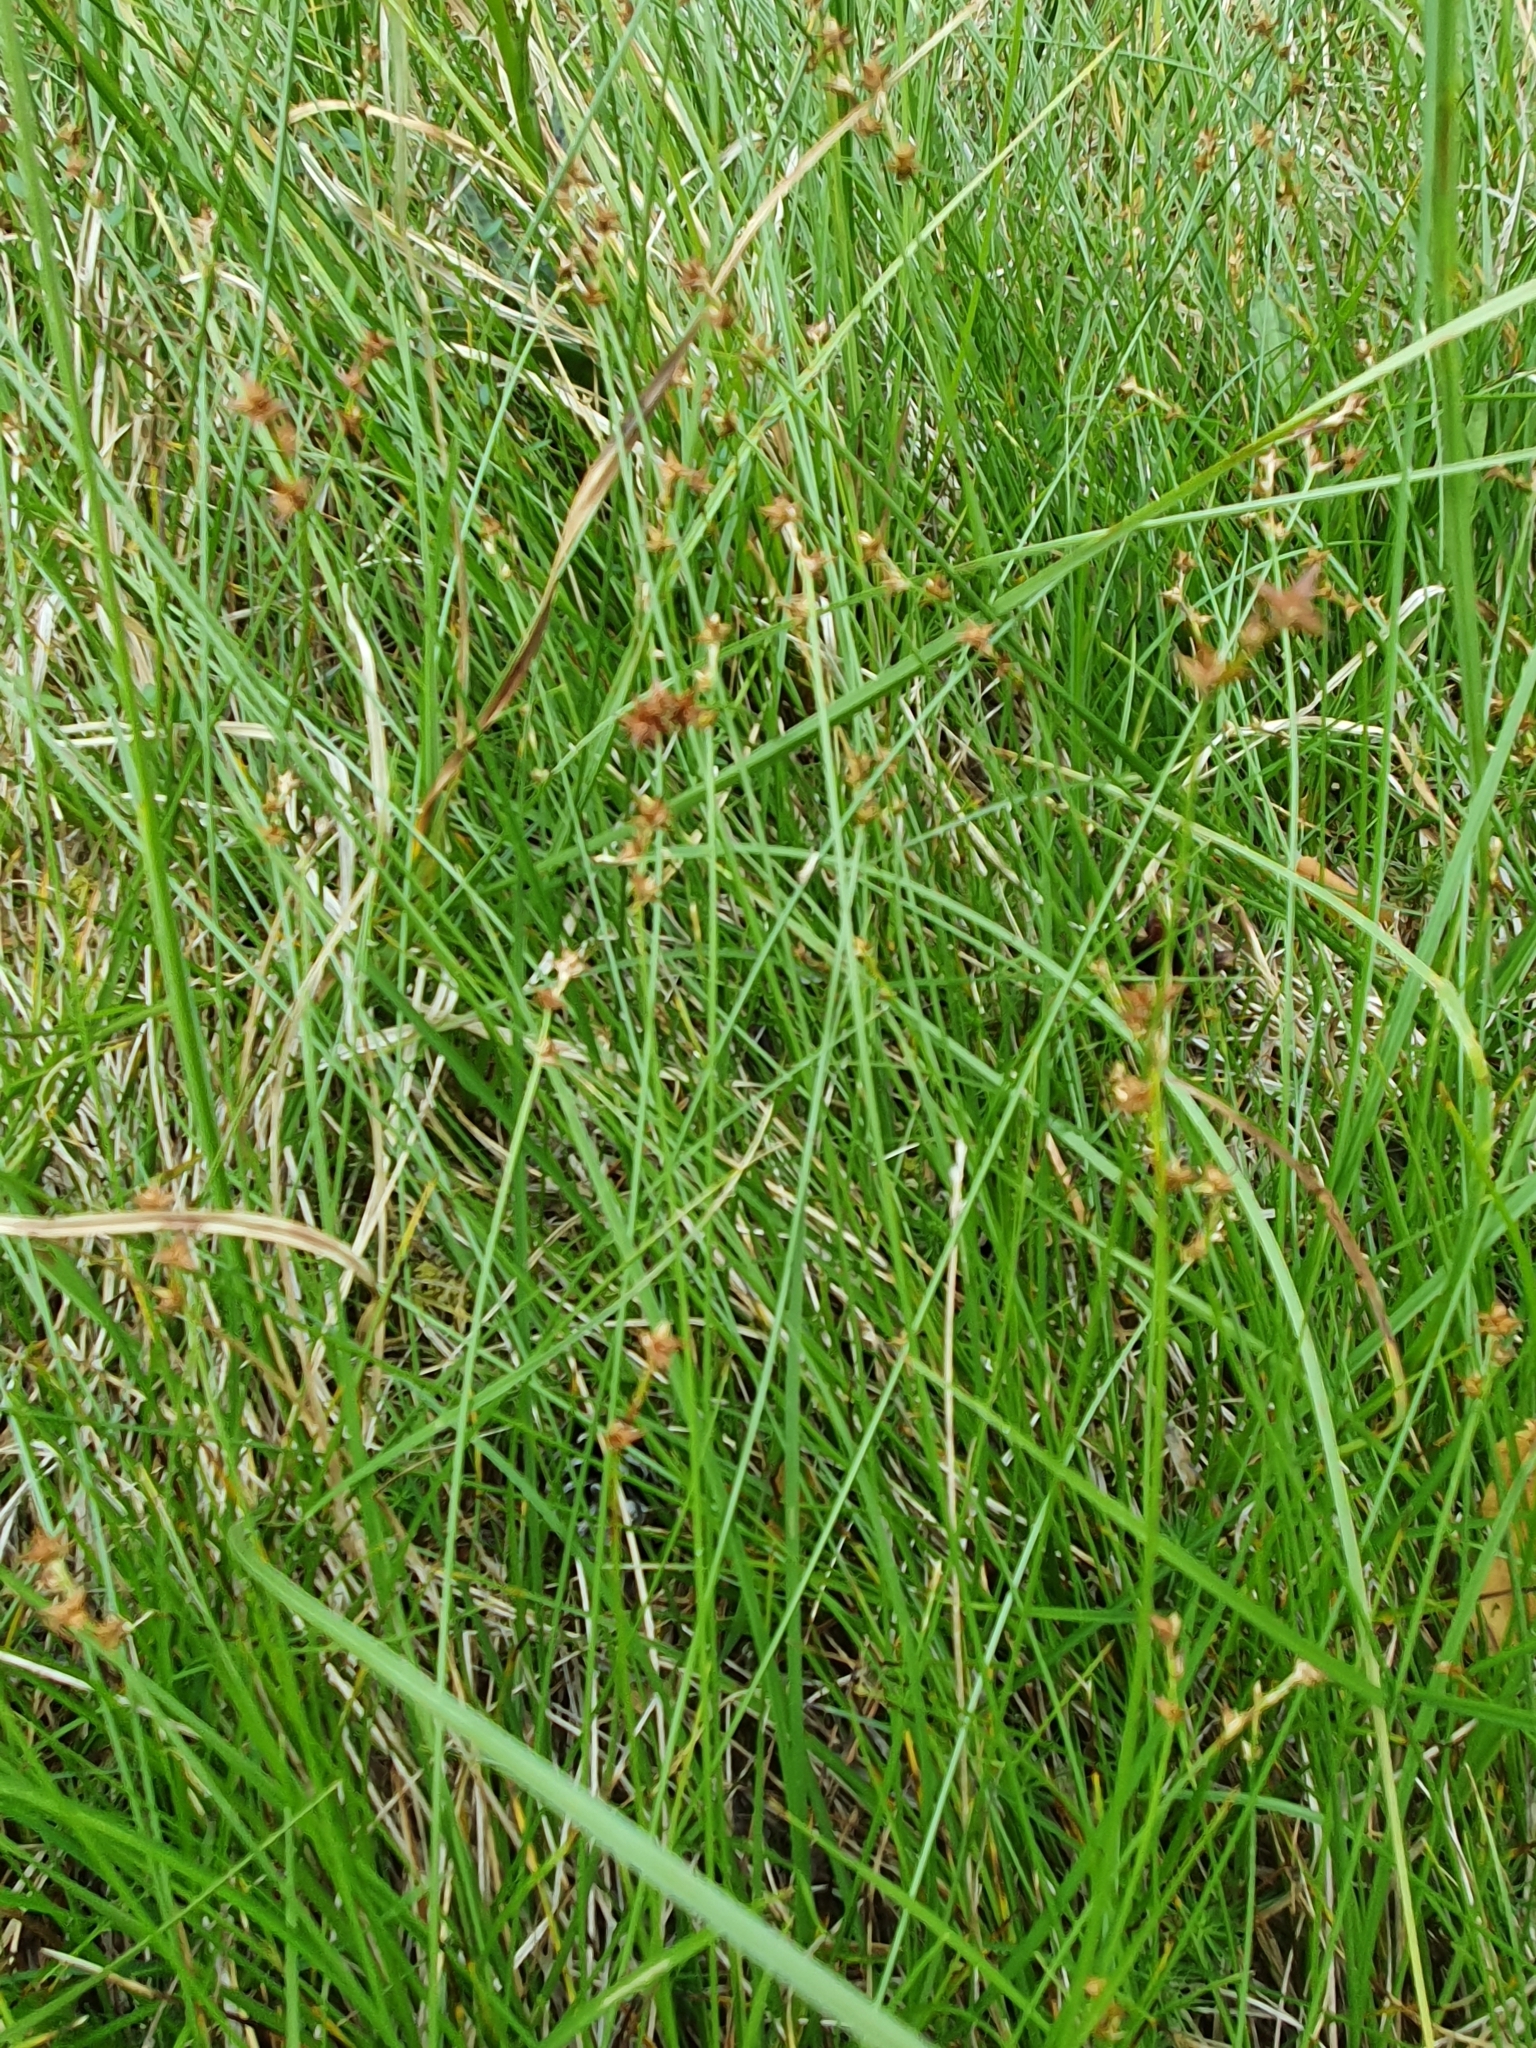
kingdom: Plantae
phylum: Tracheophyta
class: Liliopsida
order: Poales
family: Cyperaceae
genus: Carex
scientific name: Carex echinata
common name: Star sedge
